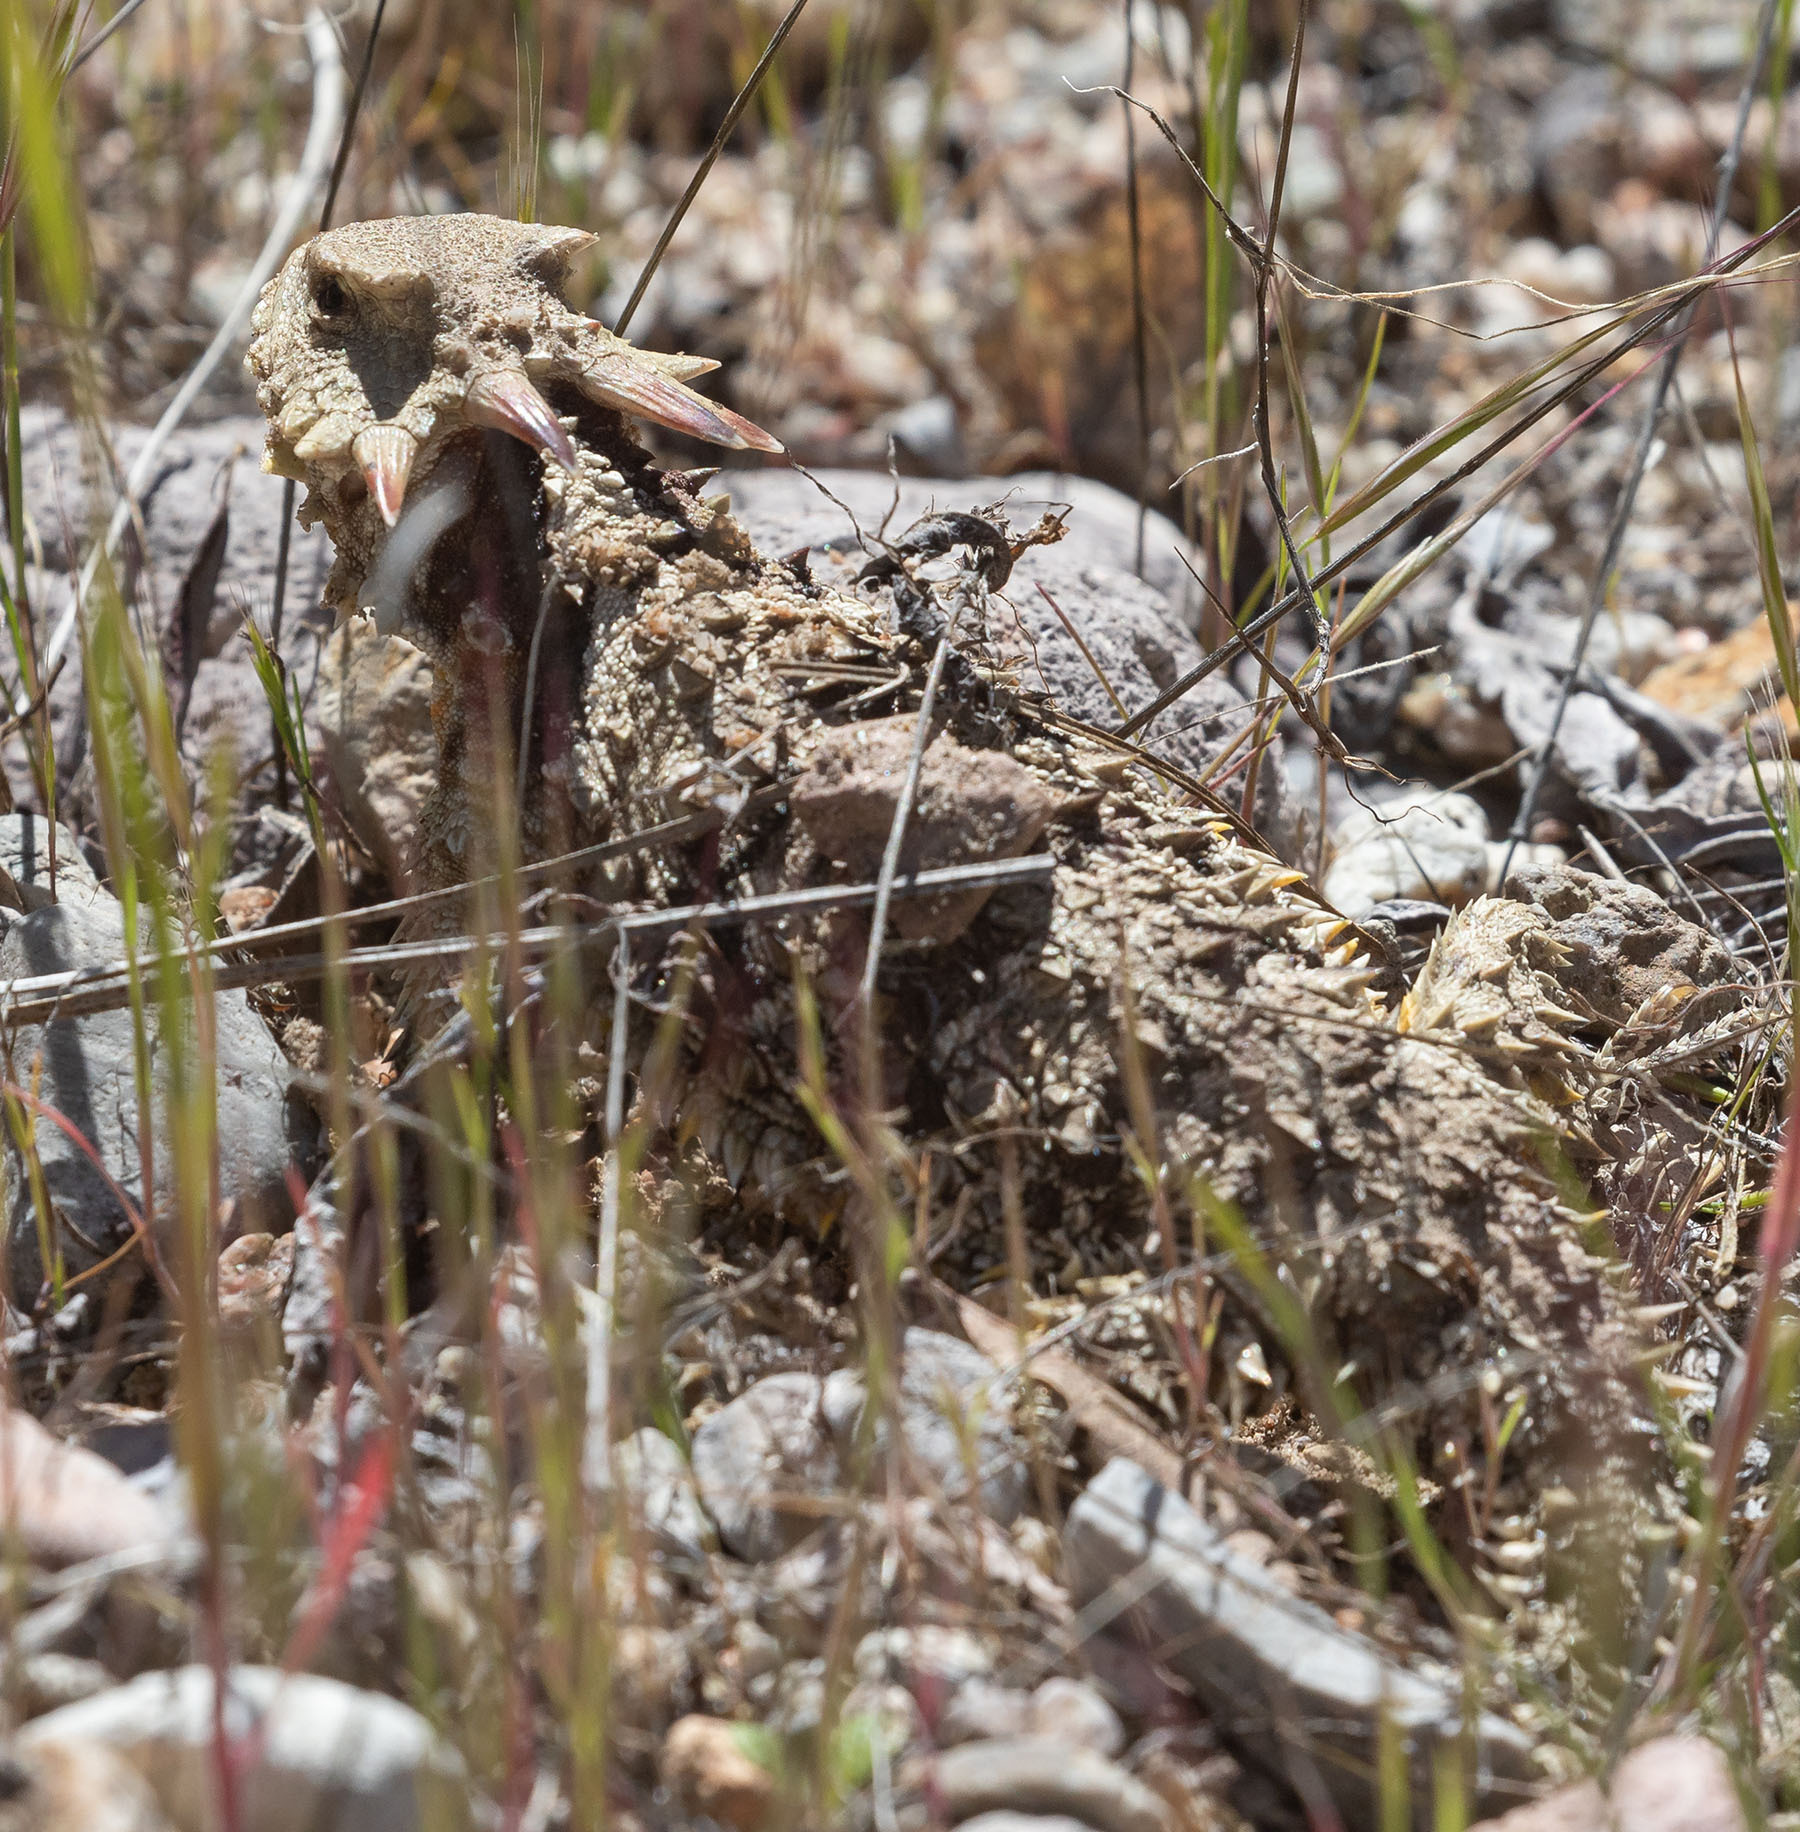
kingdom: Animalia
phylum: Chordata
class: Squamata
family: Phrynosomatidae
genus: Phrynosoma
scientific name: Phrynosoma blainvillii
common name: San diego horned lizard
